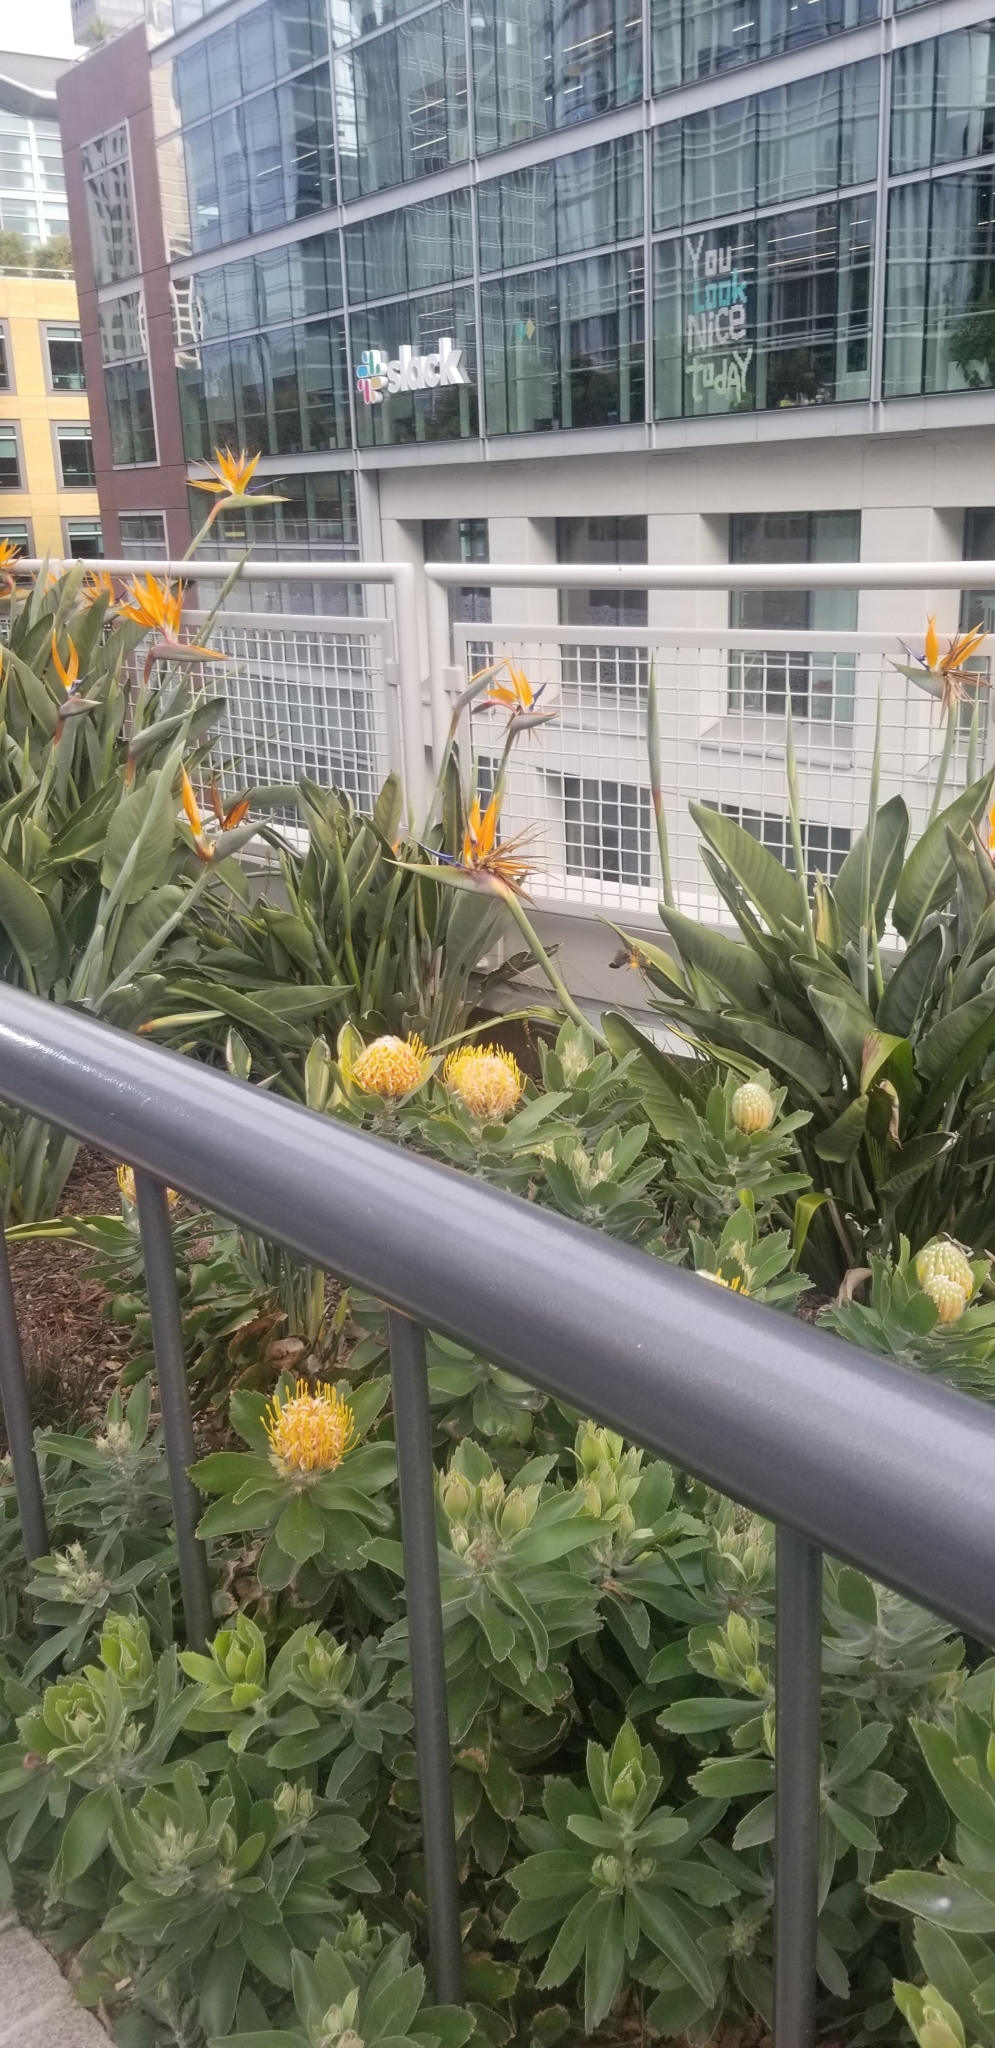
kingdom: Animalia
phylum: Chordata
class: Aves
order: Apodiformes
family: Trochilidae
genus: Calypte
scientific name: Calypte anna
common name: Anna's hummingbird
